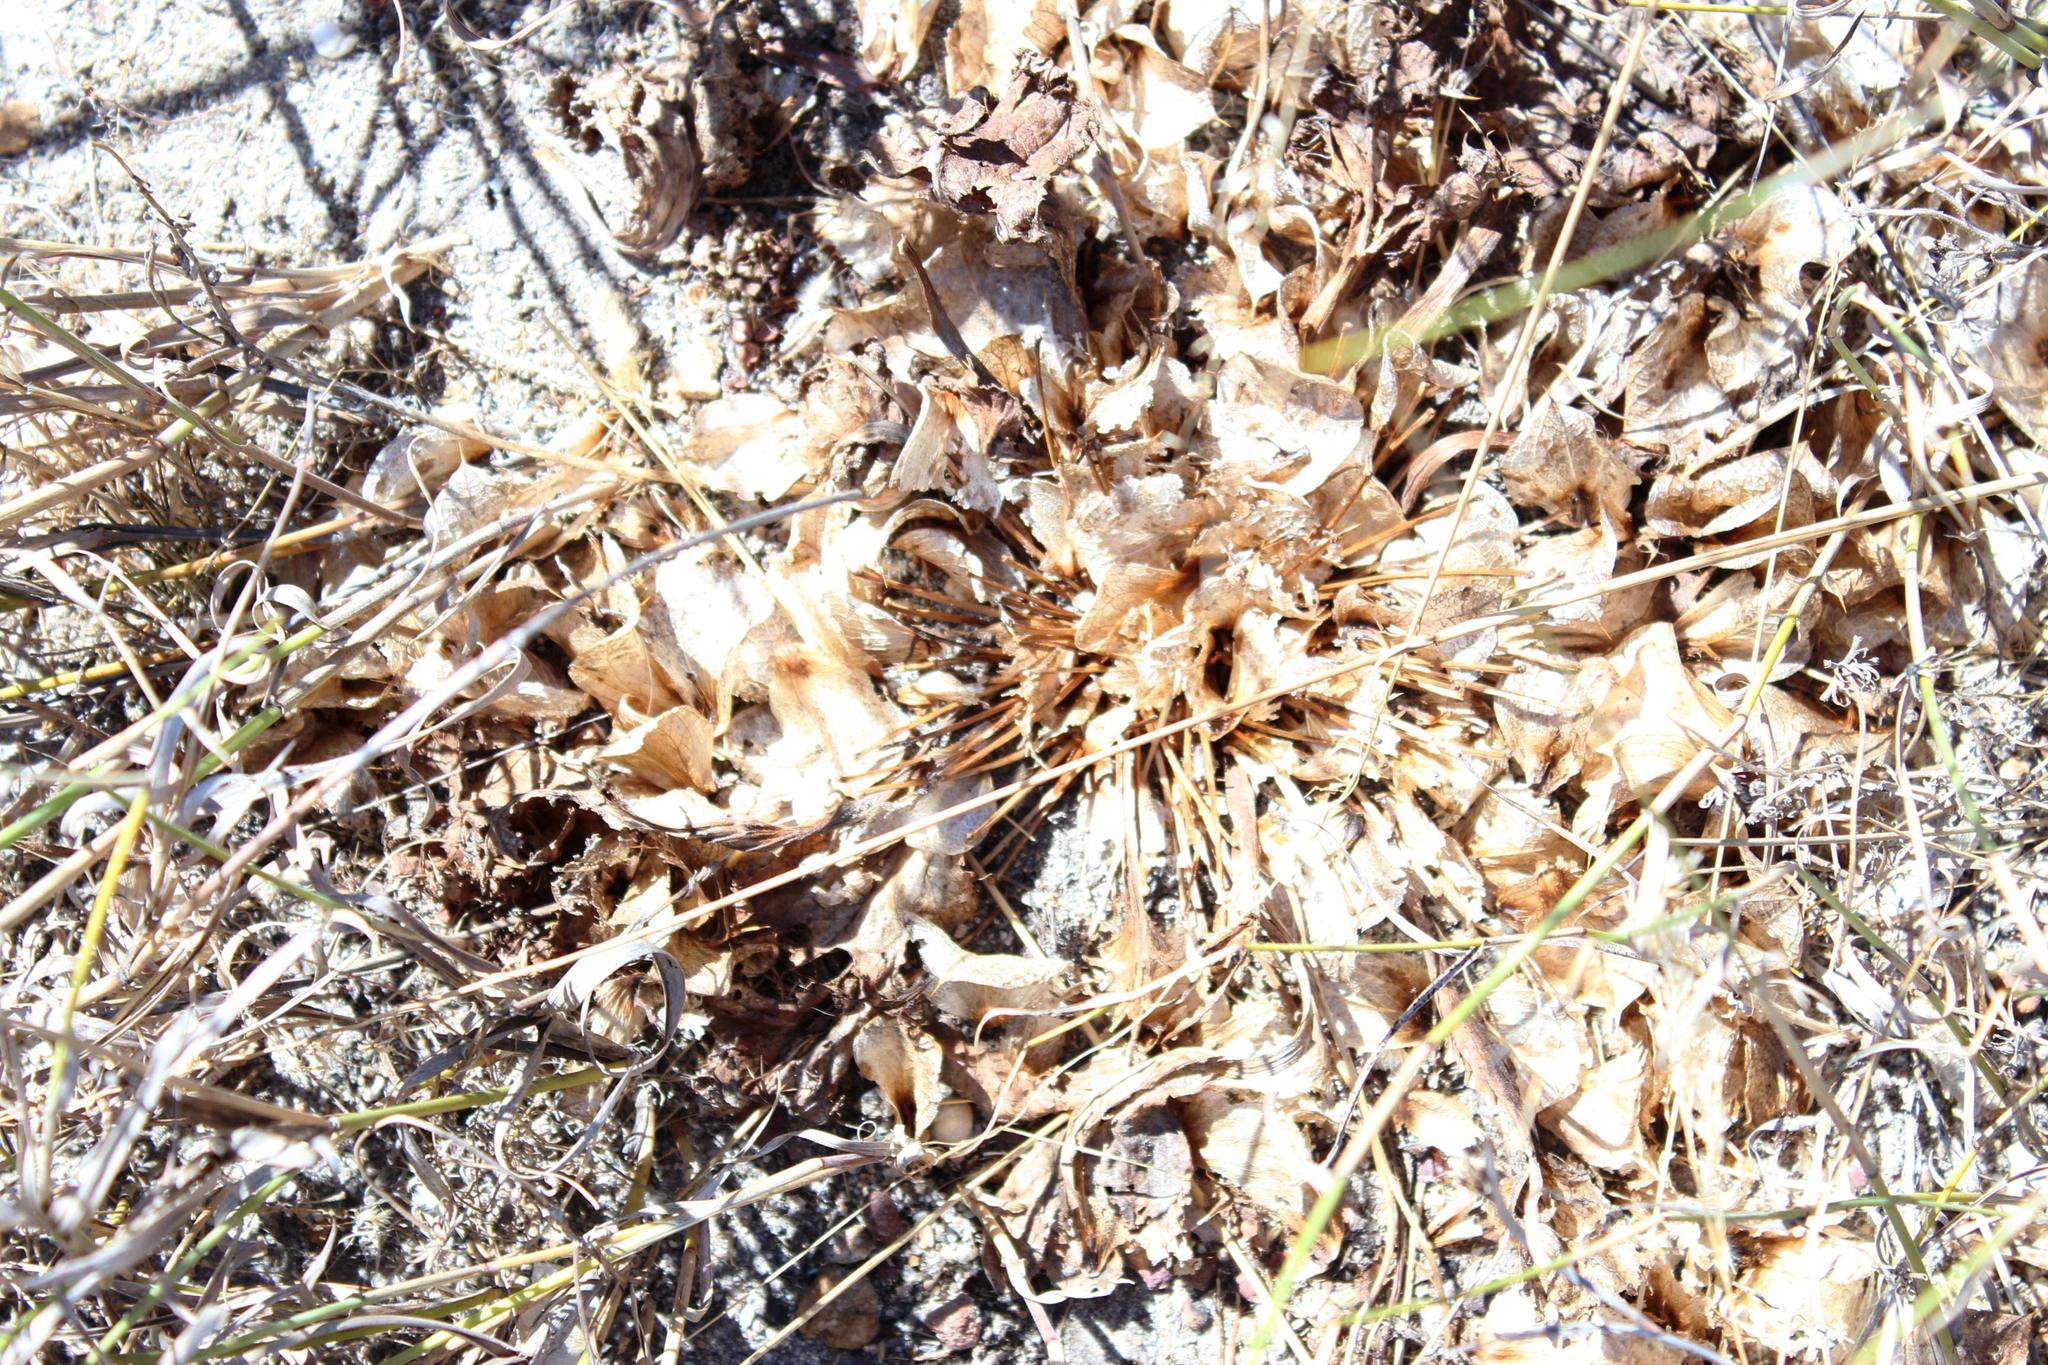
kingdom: Plantae
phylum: Tracheophyta
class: Magnoliopsida
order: Apiales
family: Apiaceae
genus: Arctopus
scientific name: Arctopus monacanthus
